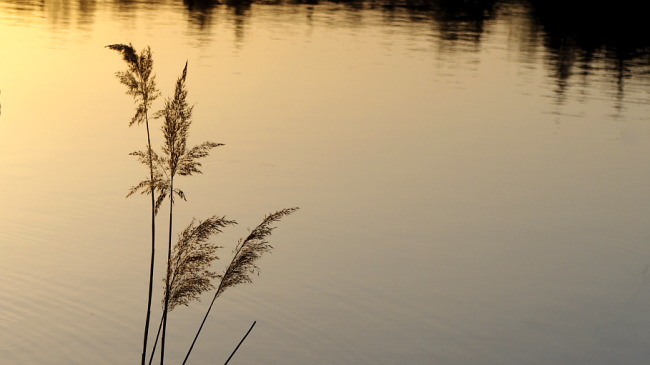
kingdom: Plantae
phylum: Tracheophyta
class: Liliopsida
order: Poales
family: Poaceae
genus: Phragmites
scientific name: Phragmites australis
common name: Common reed
